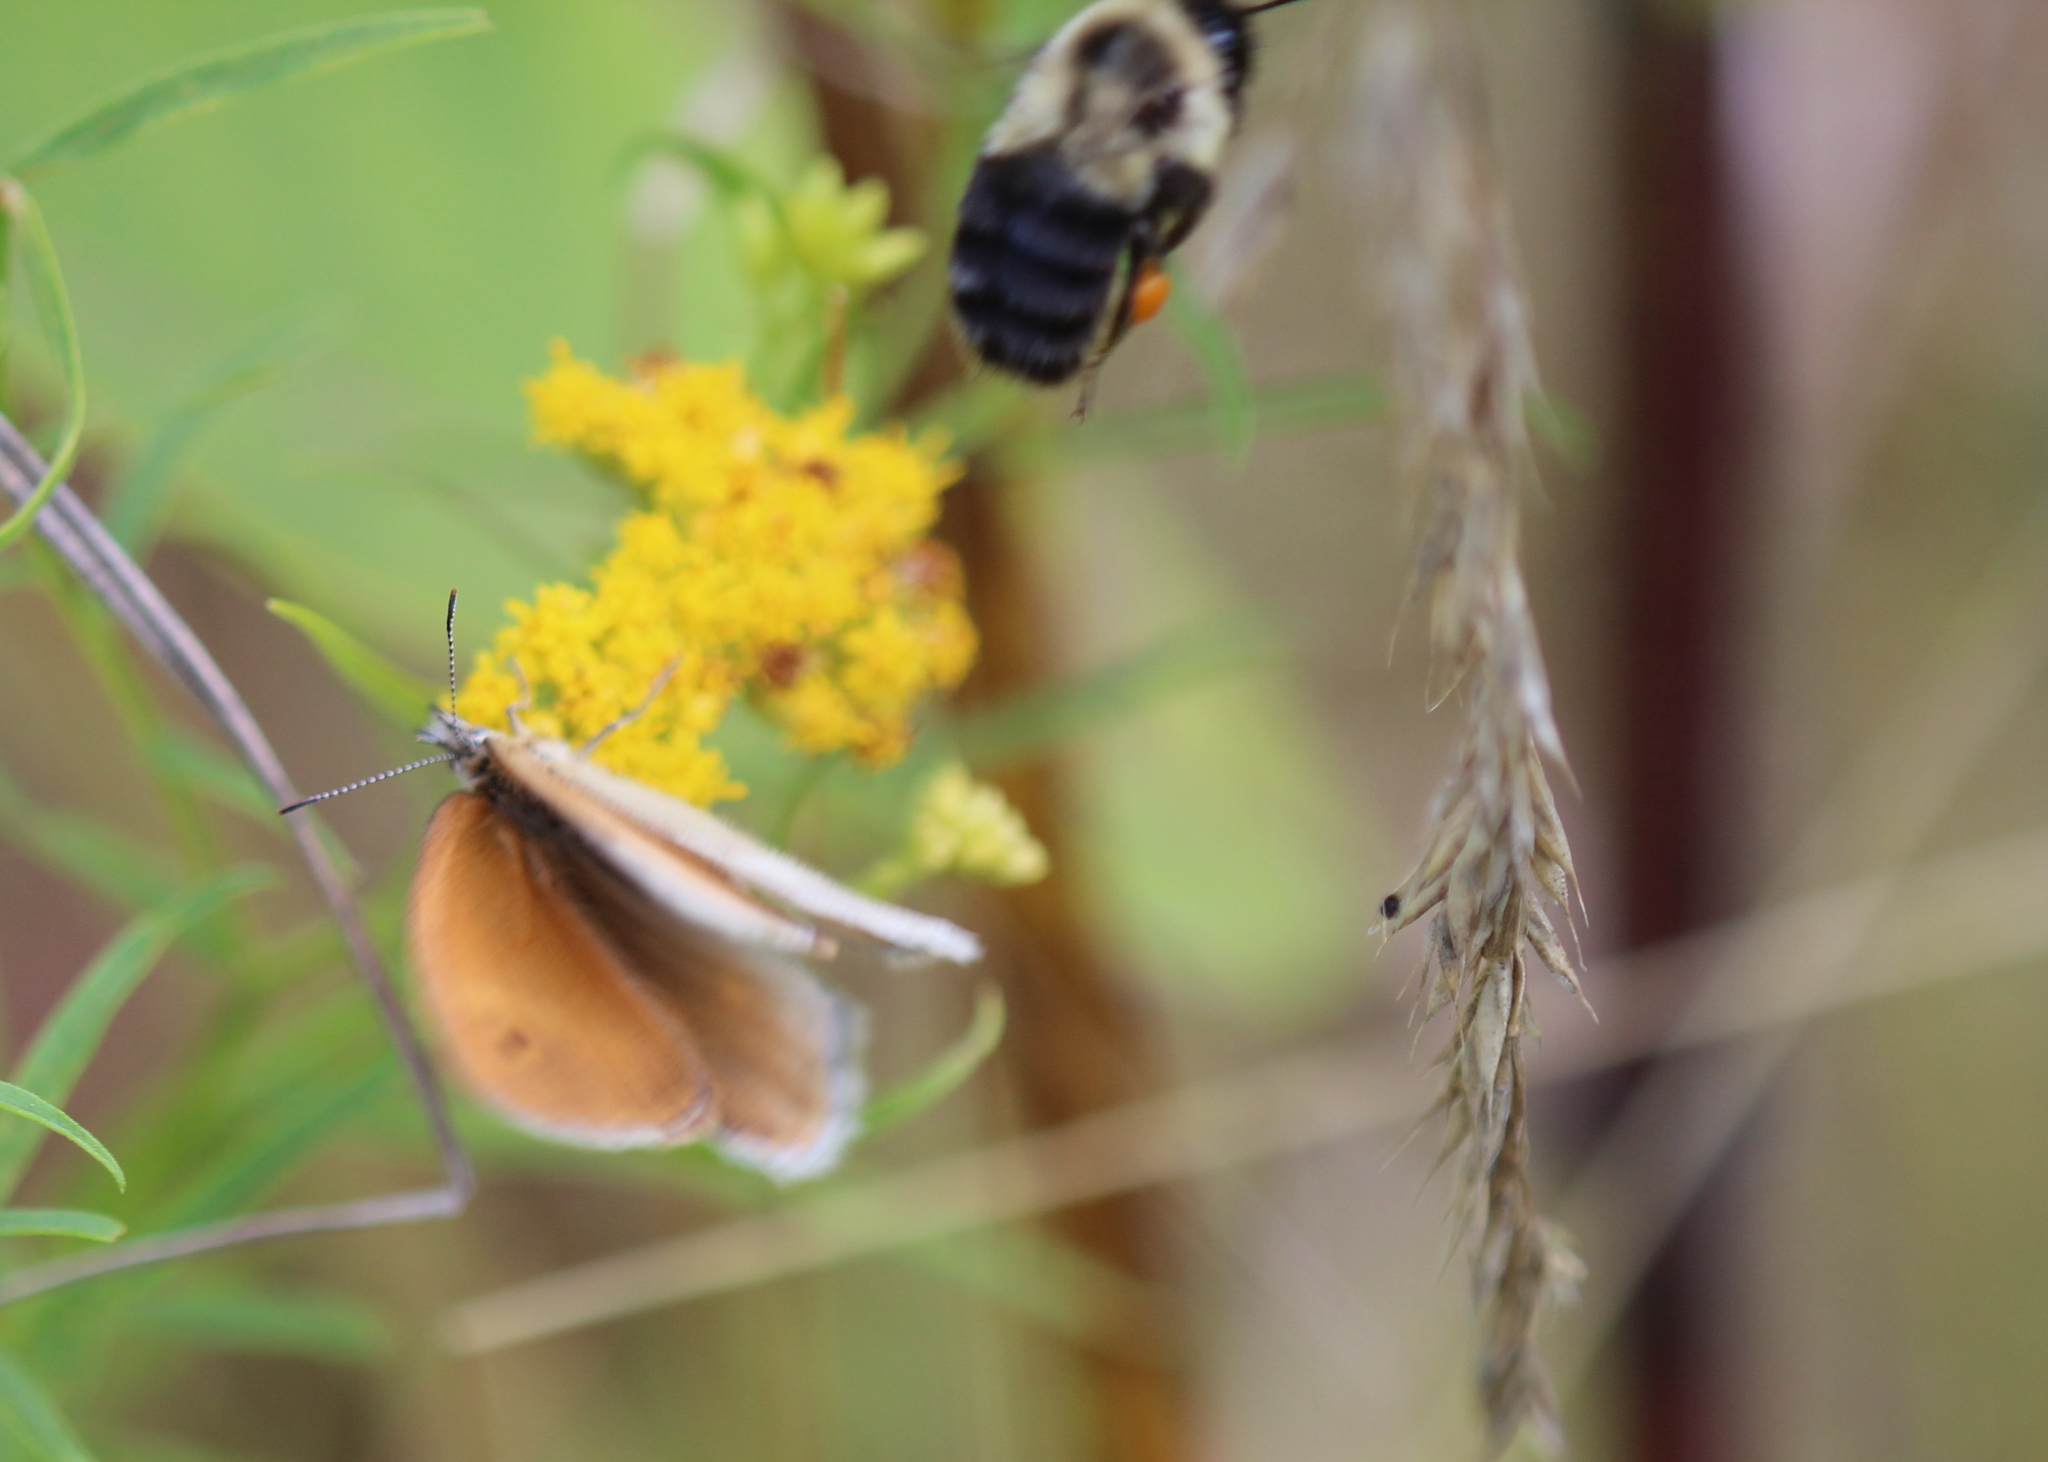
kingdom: Animalia
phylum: Arthropoda
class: Insecta
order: Lepidoptera
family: Nymphalidae
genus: Coenonympha
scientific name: Coenonympha california
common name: Common ringlet
